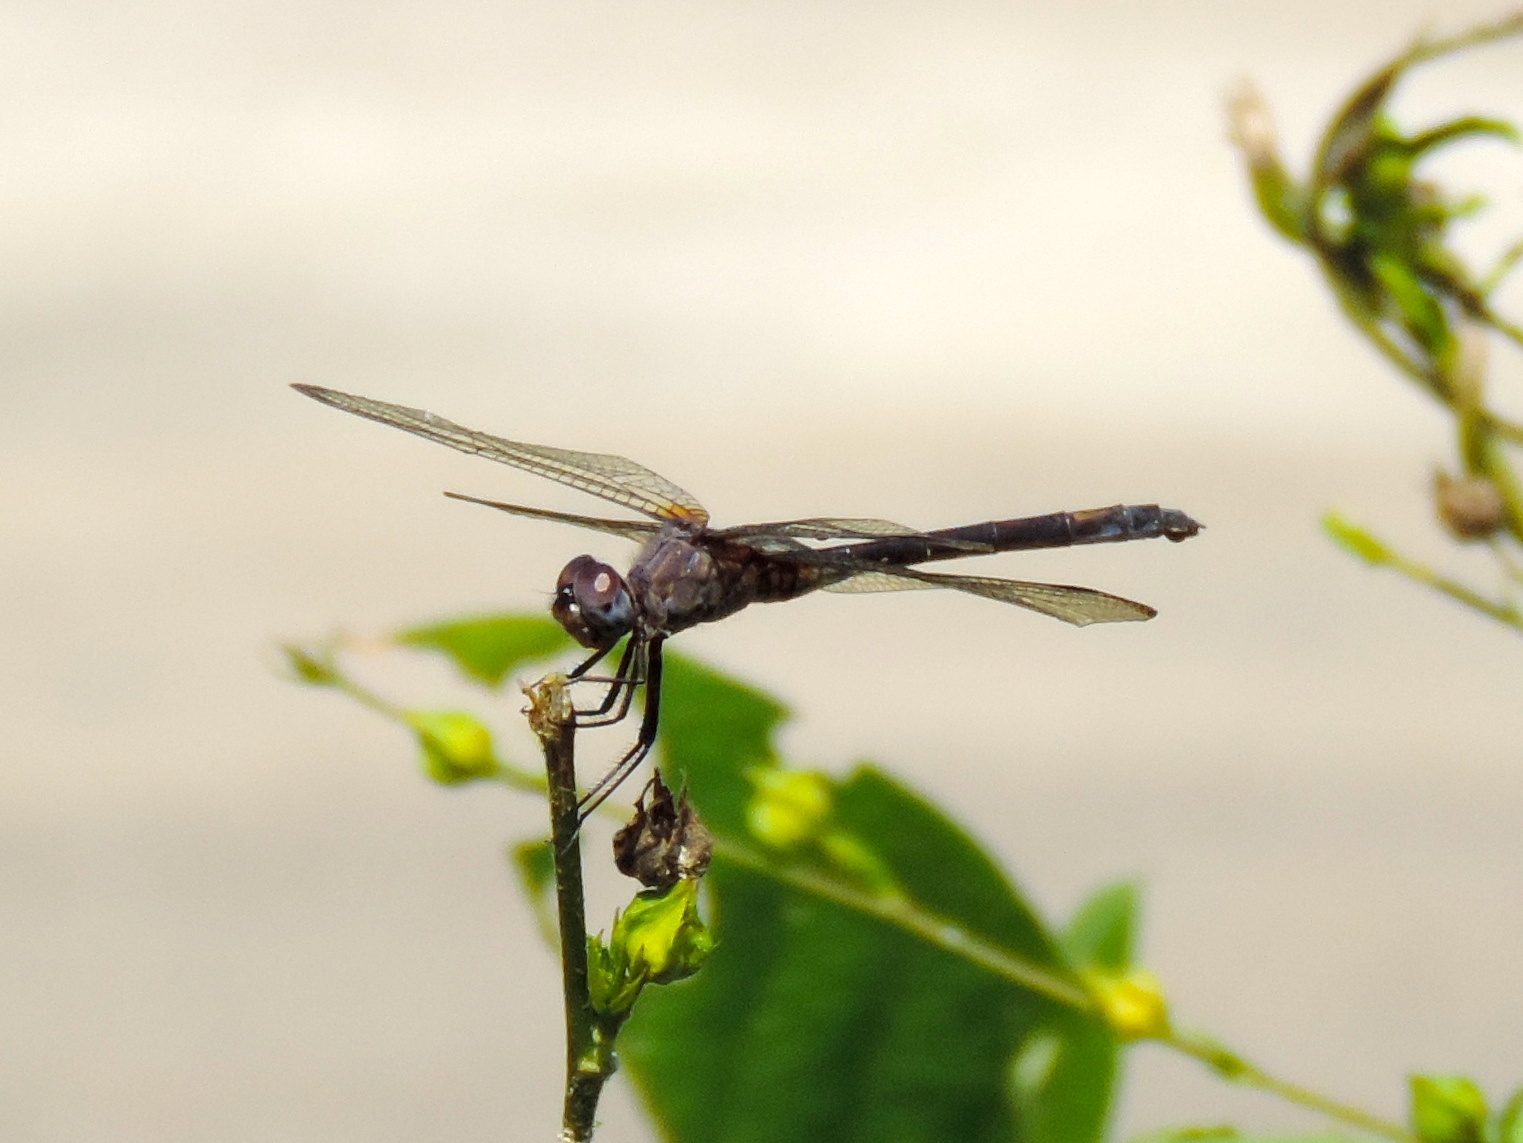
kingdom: Animalia
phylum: Arthropoda
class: Insecta
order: Odonata
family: Libellulidae
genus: Erythrodiplax
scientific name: Erythrodiplax funerea
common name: Black-winged dragonlet
